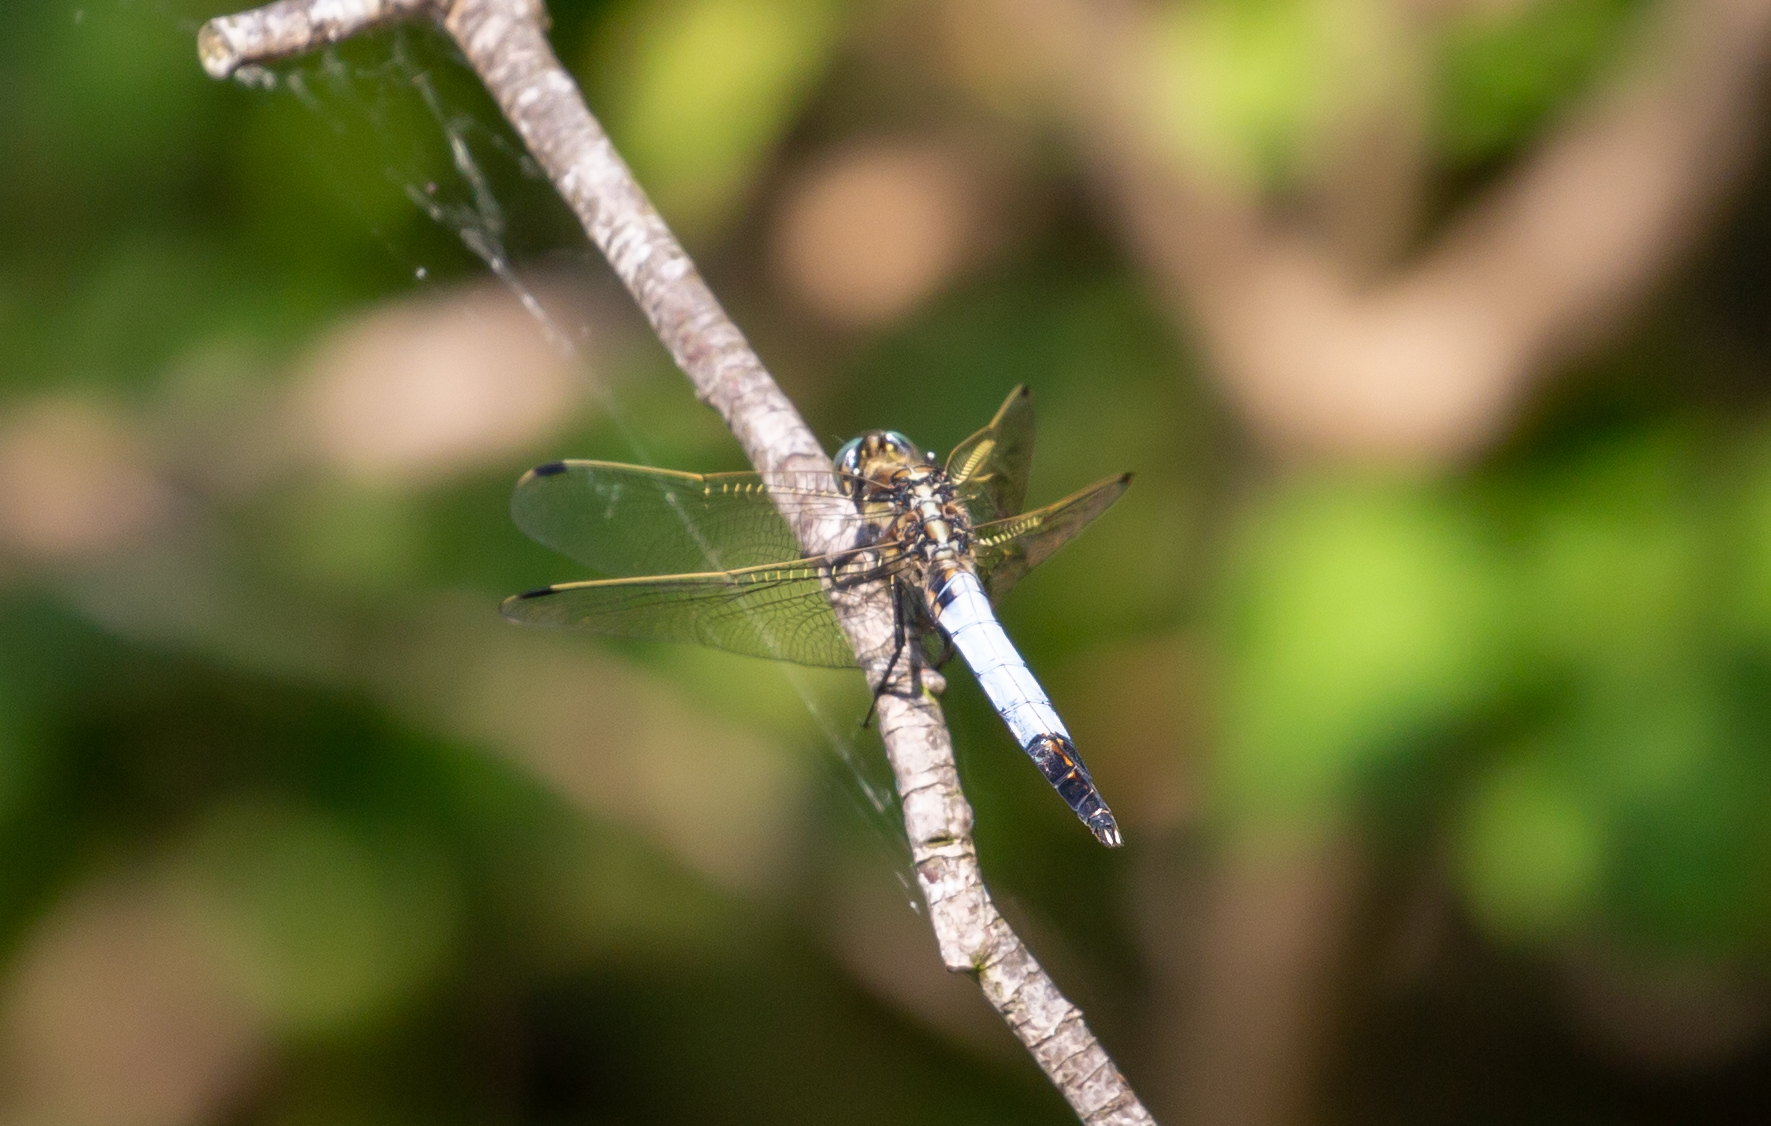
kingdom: Animalia
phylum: Arthropoda
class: Insecta
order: Odonata
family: Libellulidae
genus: Orthetrum
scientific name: Orthetrum albistylum
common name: White-tailed skimmer
